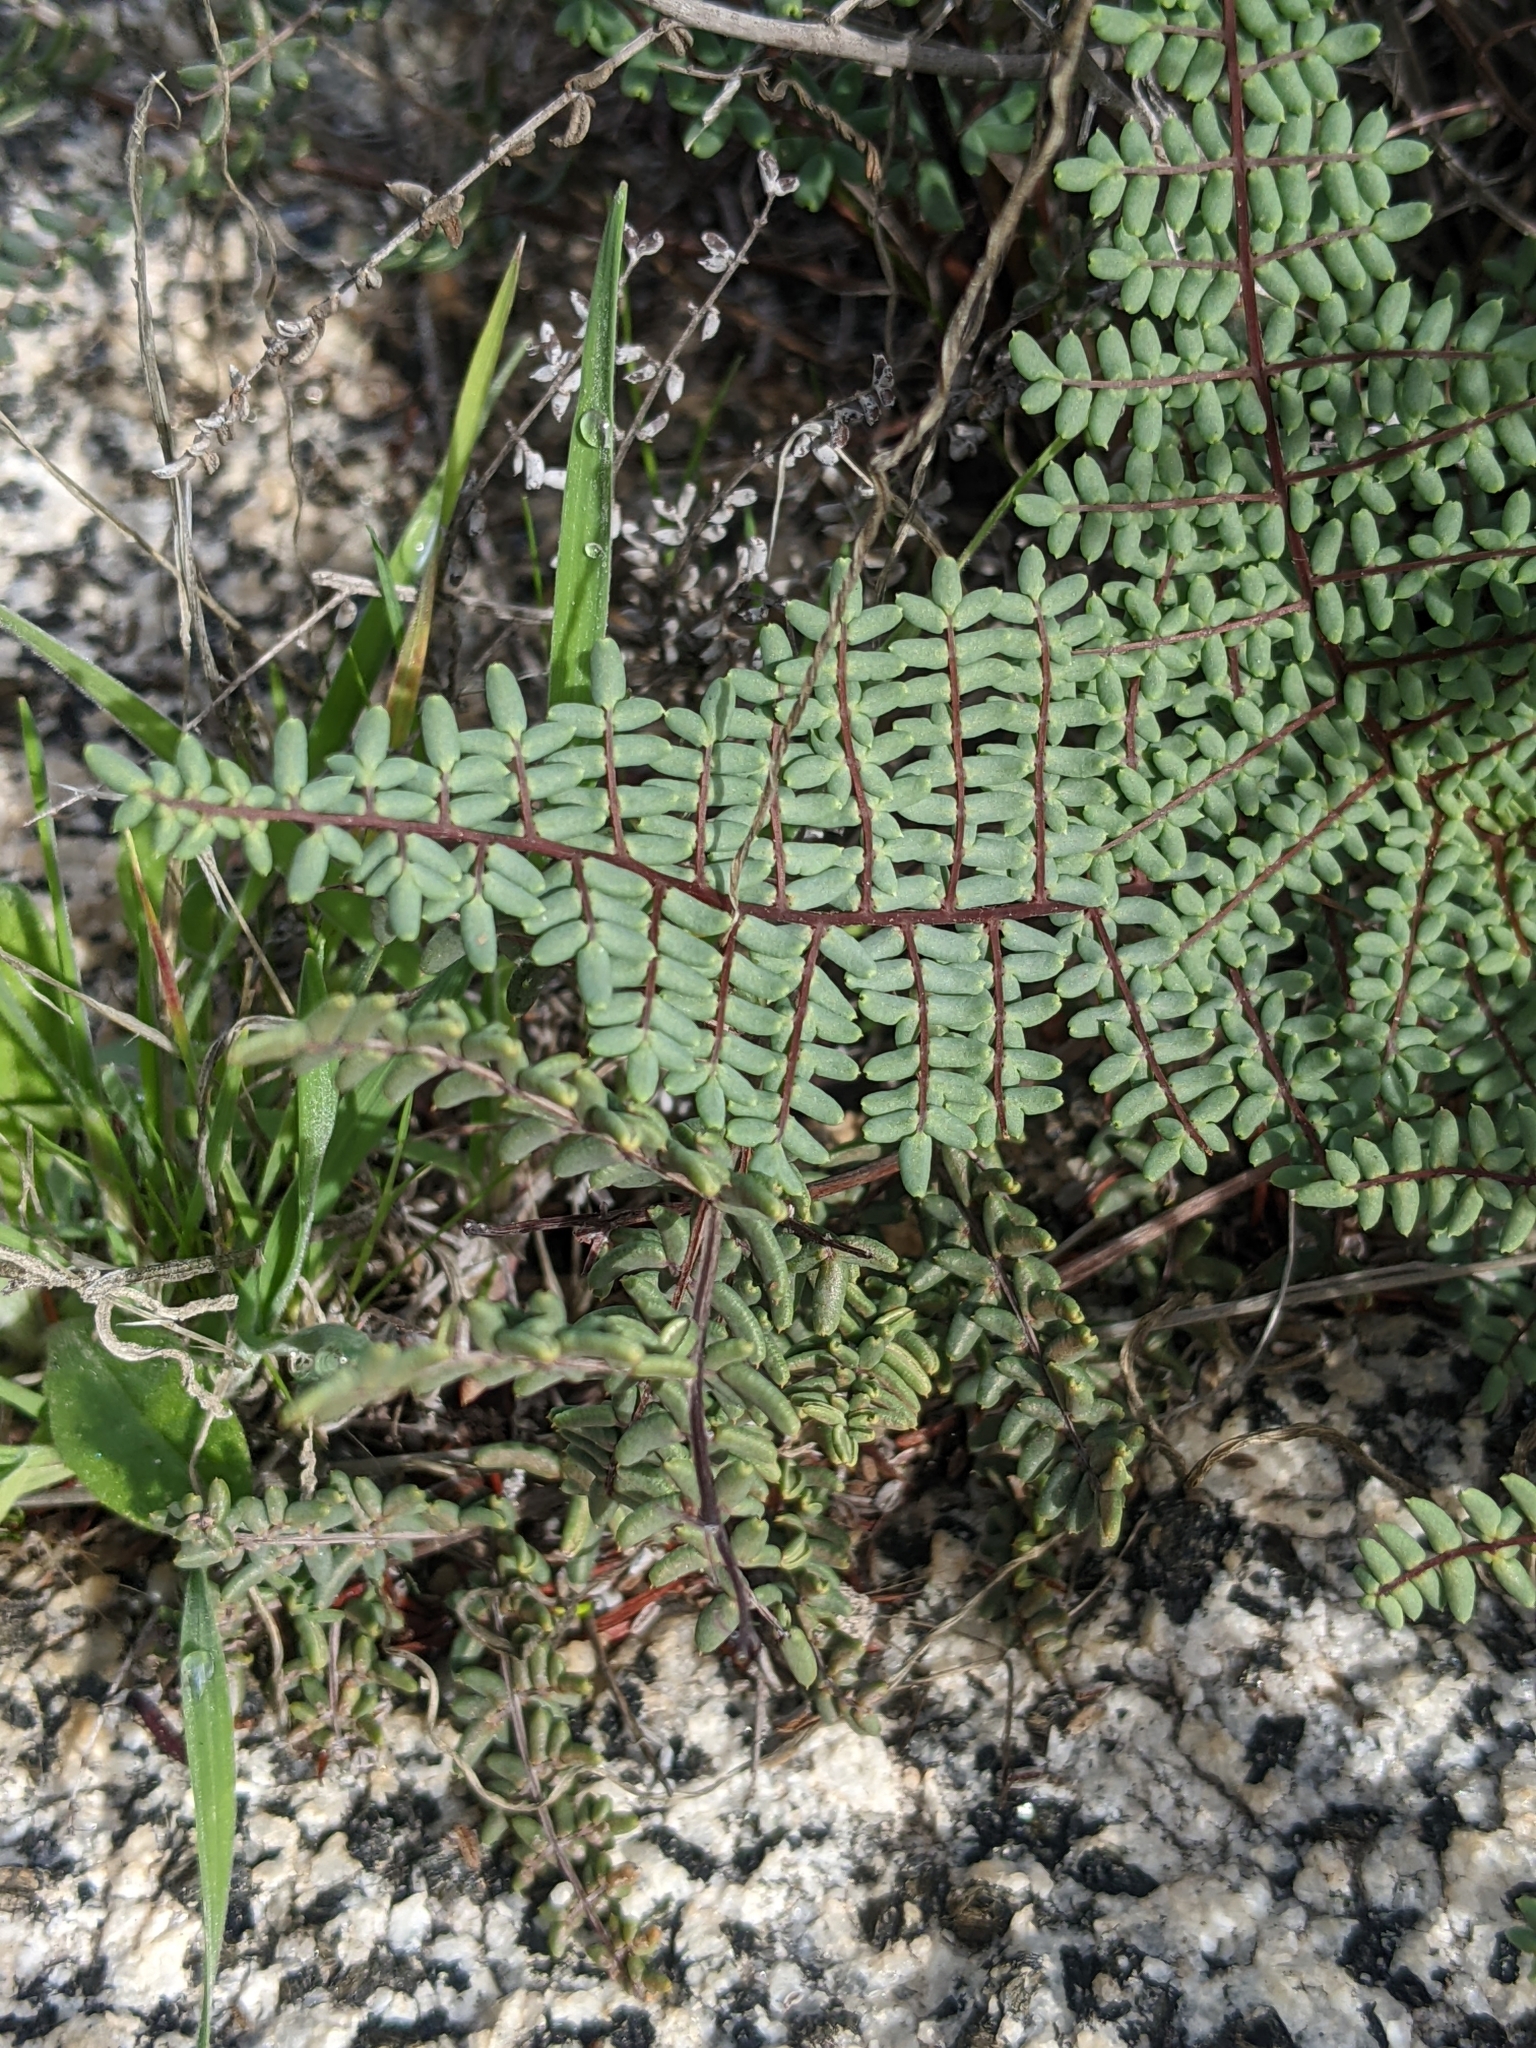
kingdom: Plantae
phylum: Tracheophyta
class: Polypodiopsida
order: Polypodiales
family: Pteridaceae
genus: Pellaea
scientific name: Pellaea mucronata
